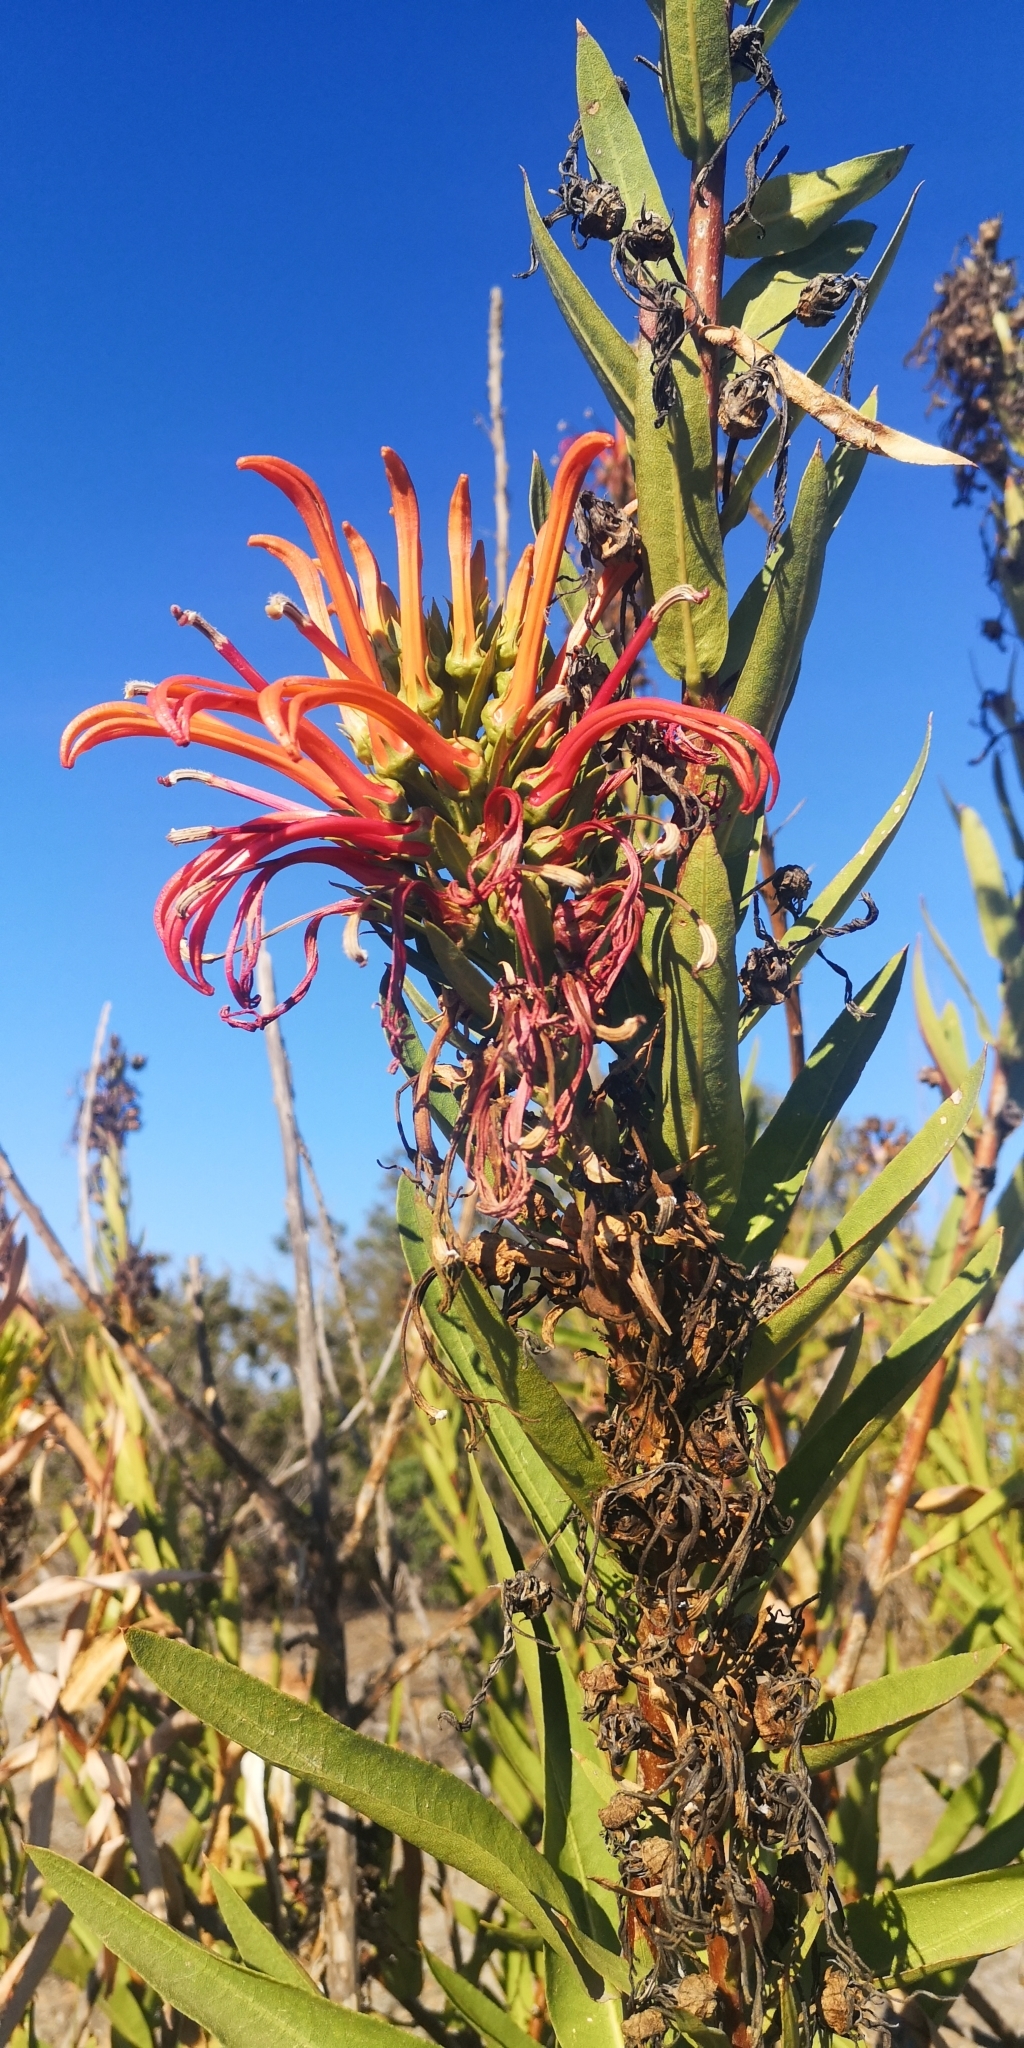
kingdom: Plantae
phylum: Tracheophyta
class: Magnoliopsida
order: Asterales
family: Campanulaceae
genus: Lobelia
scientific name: Lobelia excelsa
